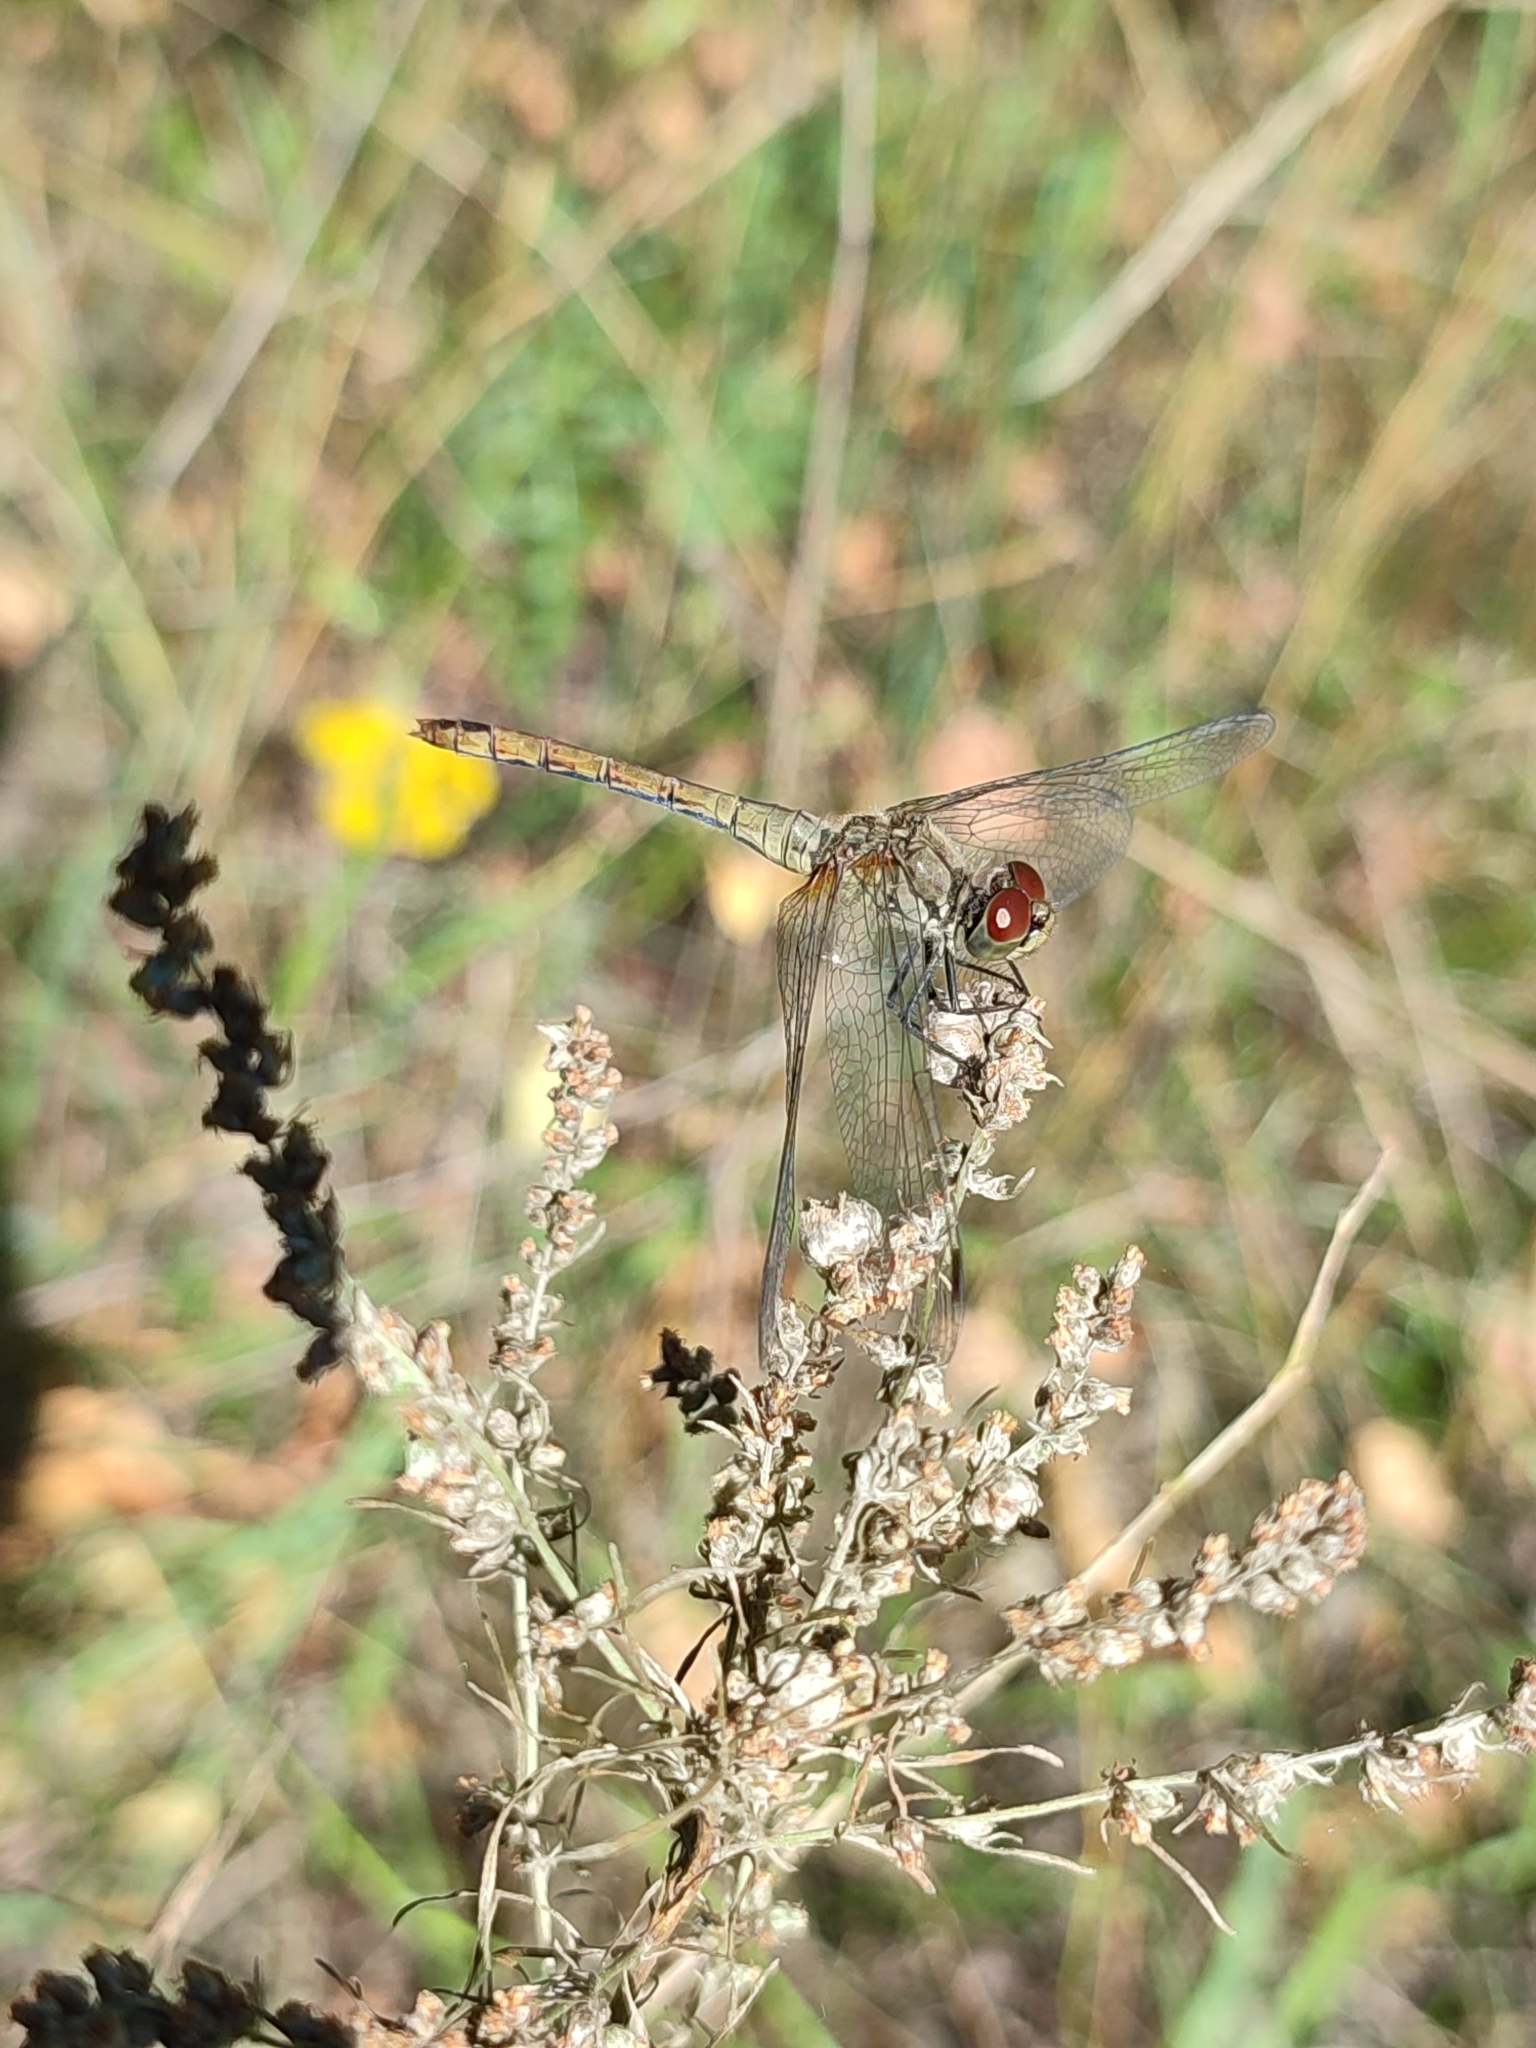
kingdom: Animalia
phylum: Arthropoda
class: Insecta
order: Odonata
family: Libellulidae
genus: Sympetrum
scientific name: Sympetrum sanguineum
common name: Ruddy darter
